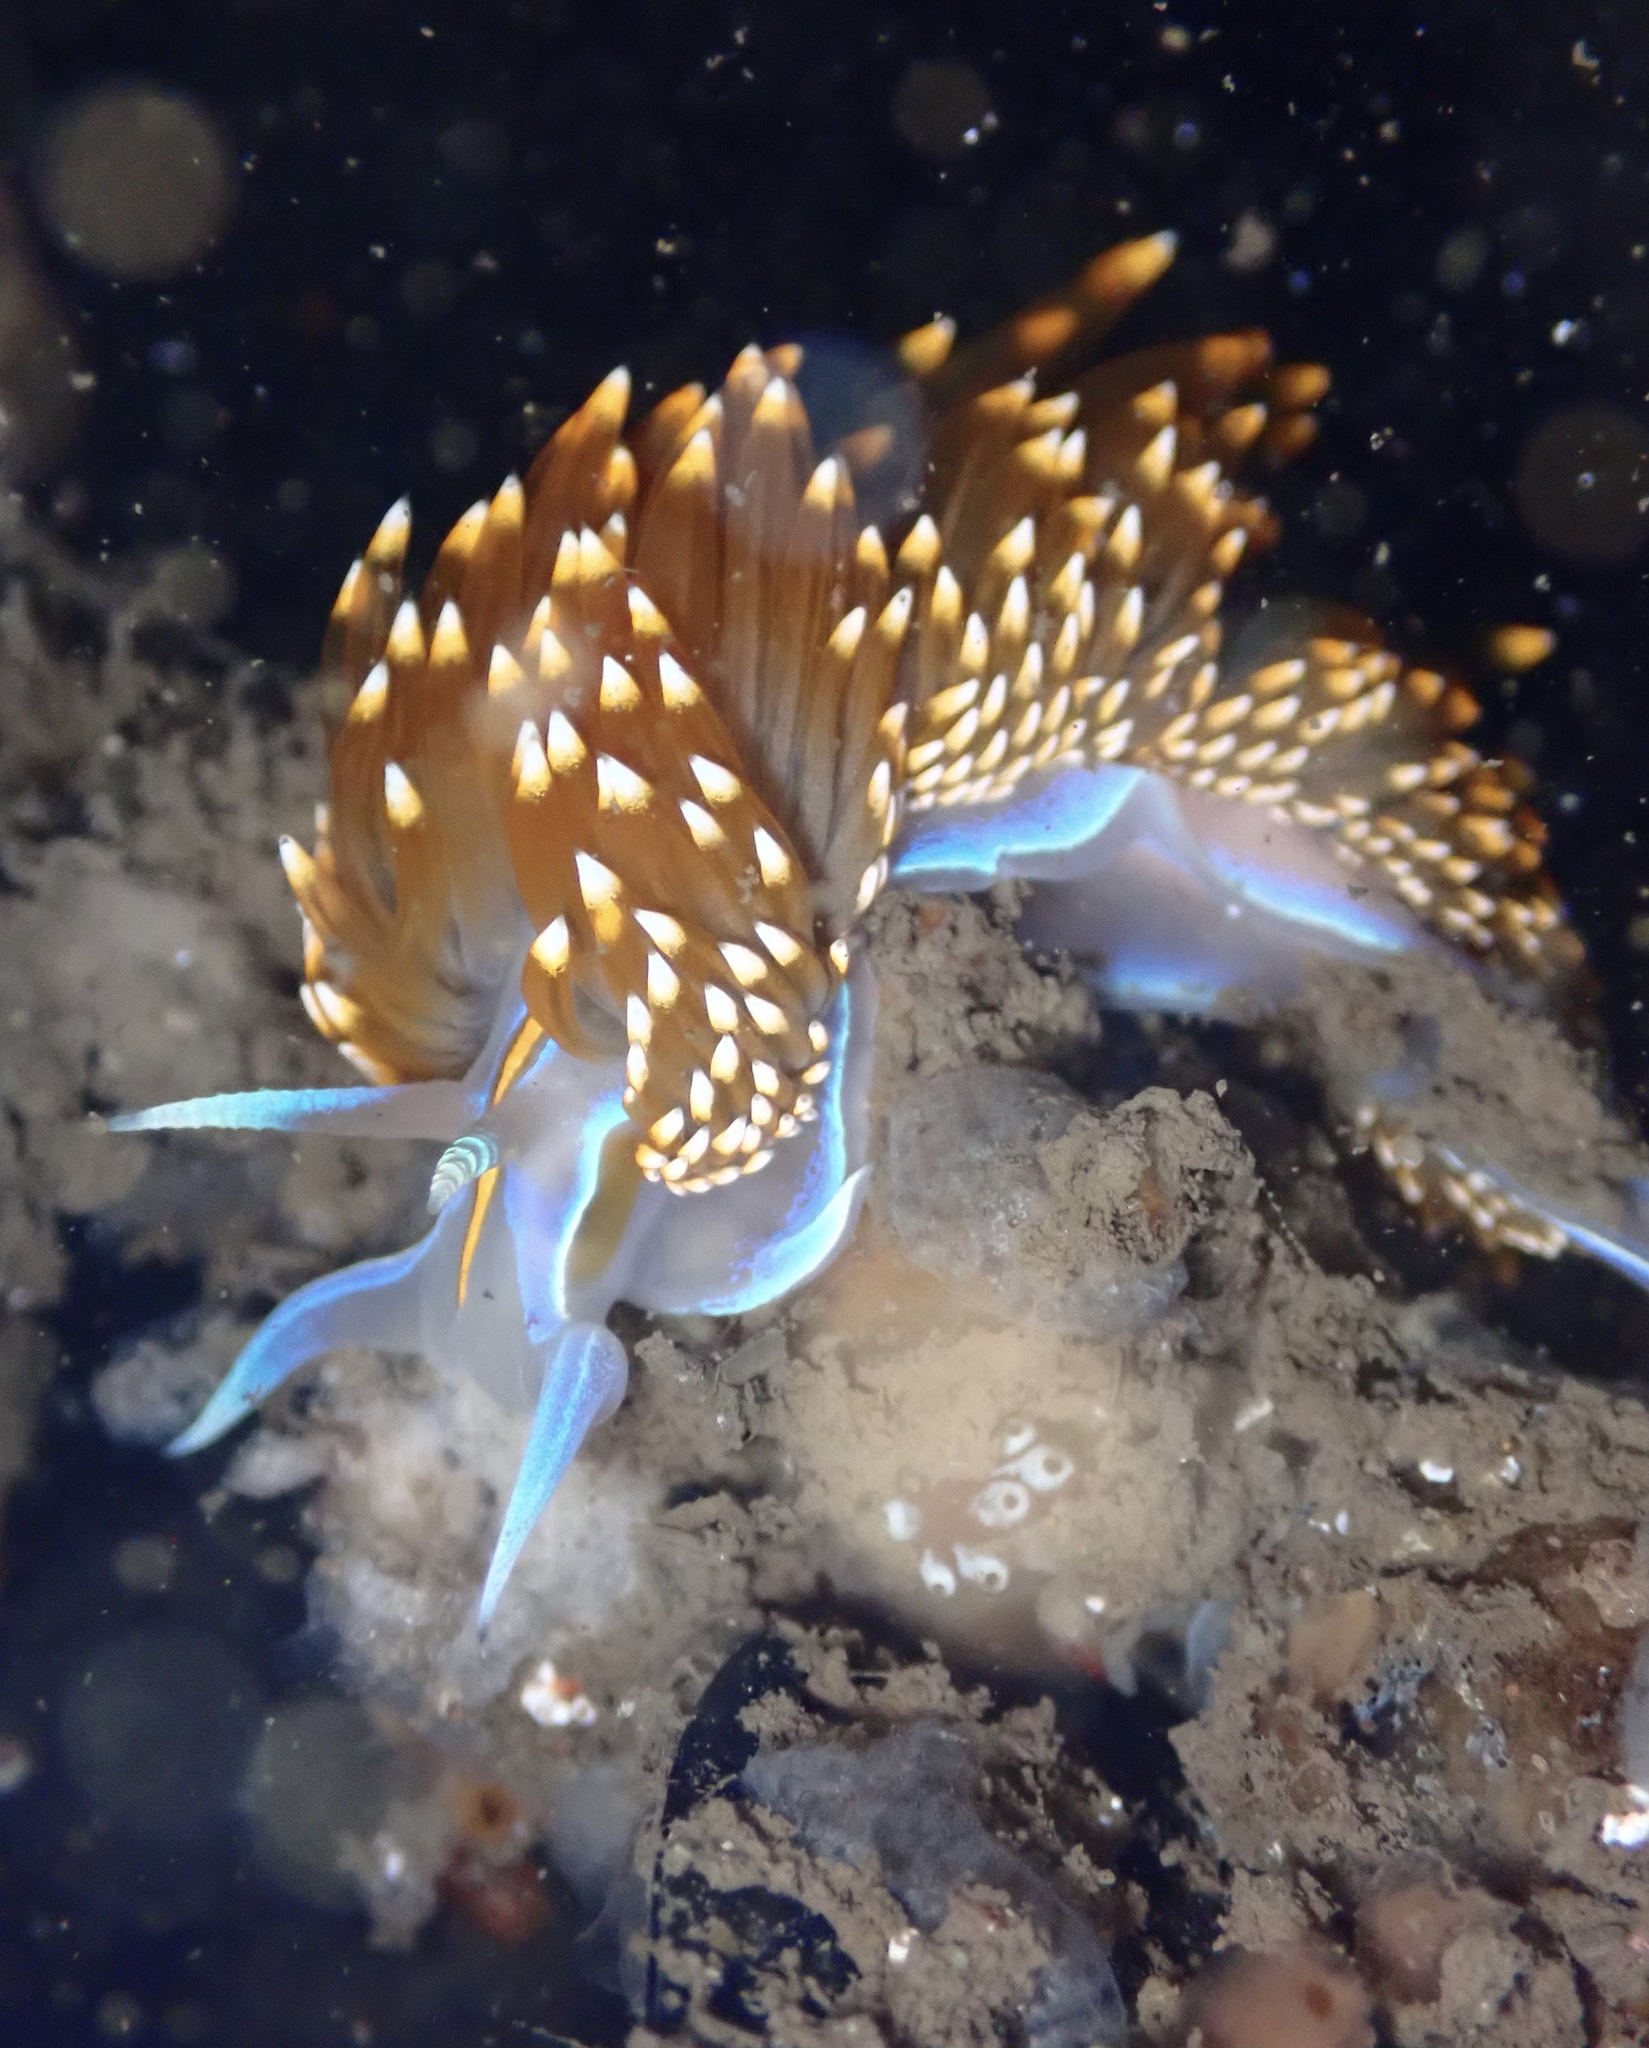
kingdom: Animalia
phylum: Mollusca
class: Gastropoda
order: Nudibranchia
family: Myrrhinidae
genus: Hermissenda
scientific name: Hermissenda opalescens
